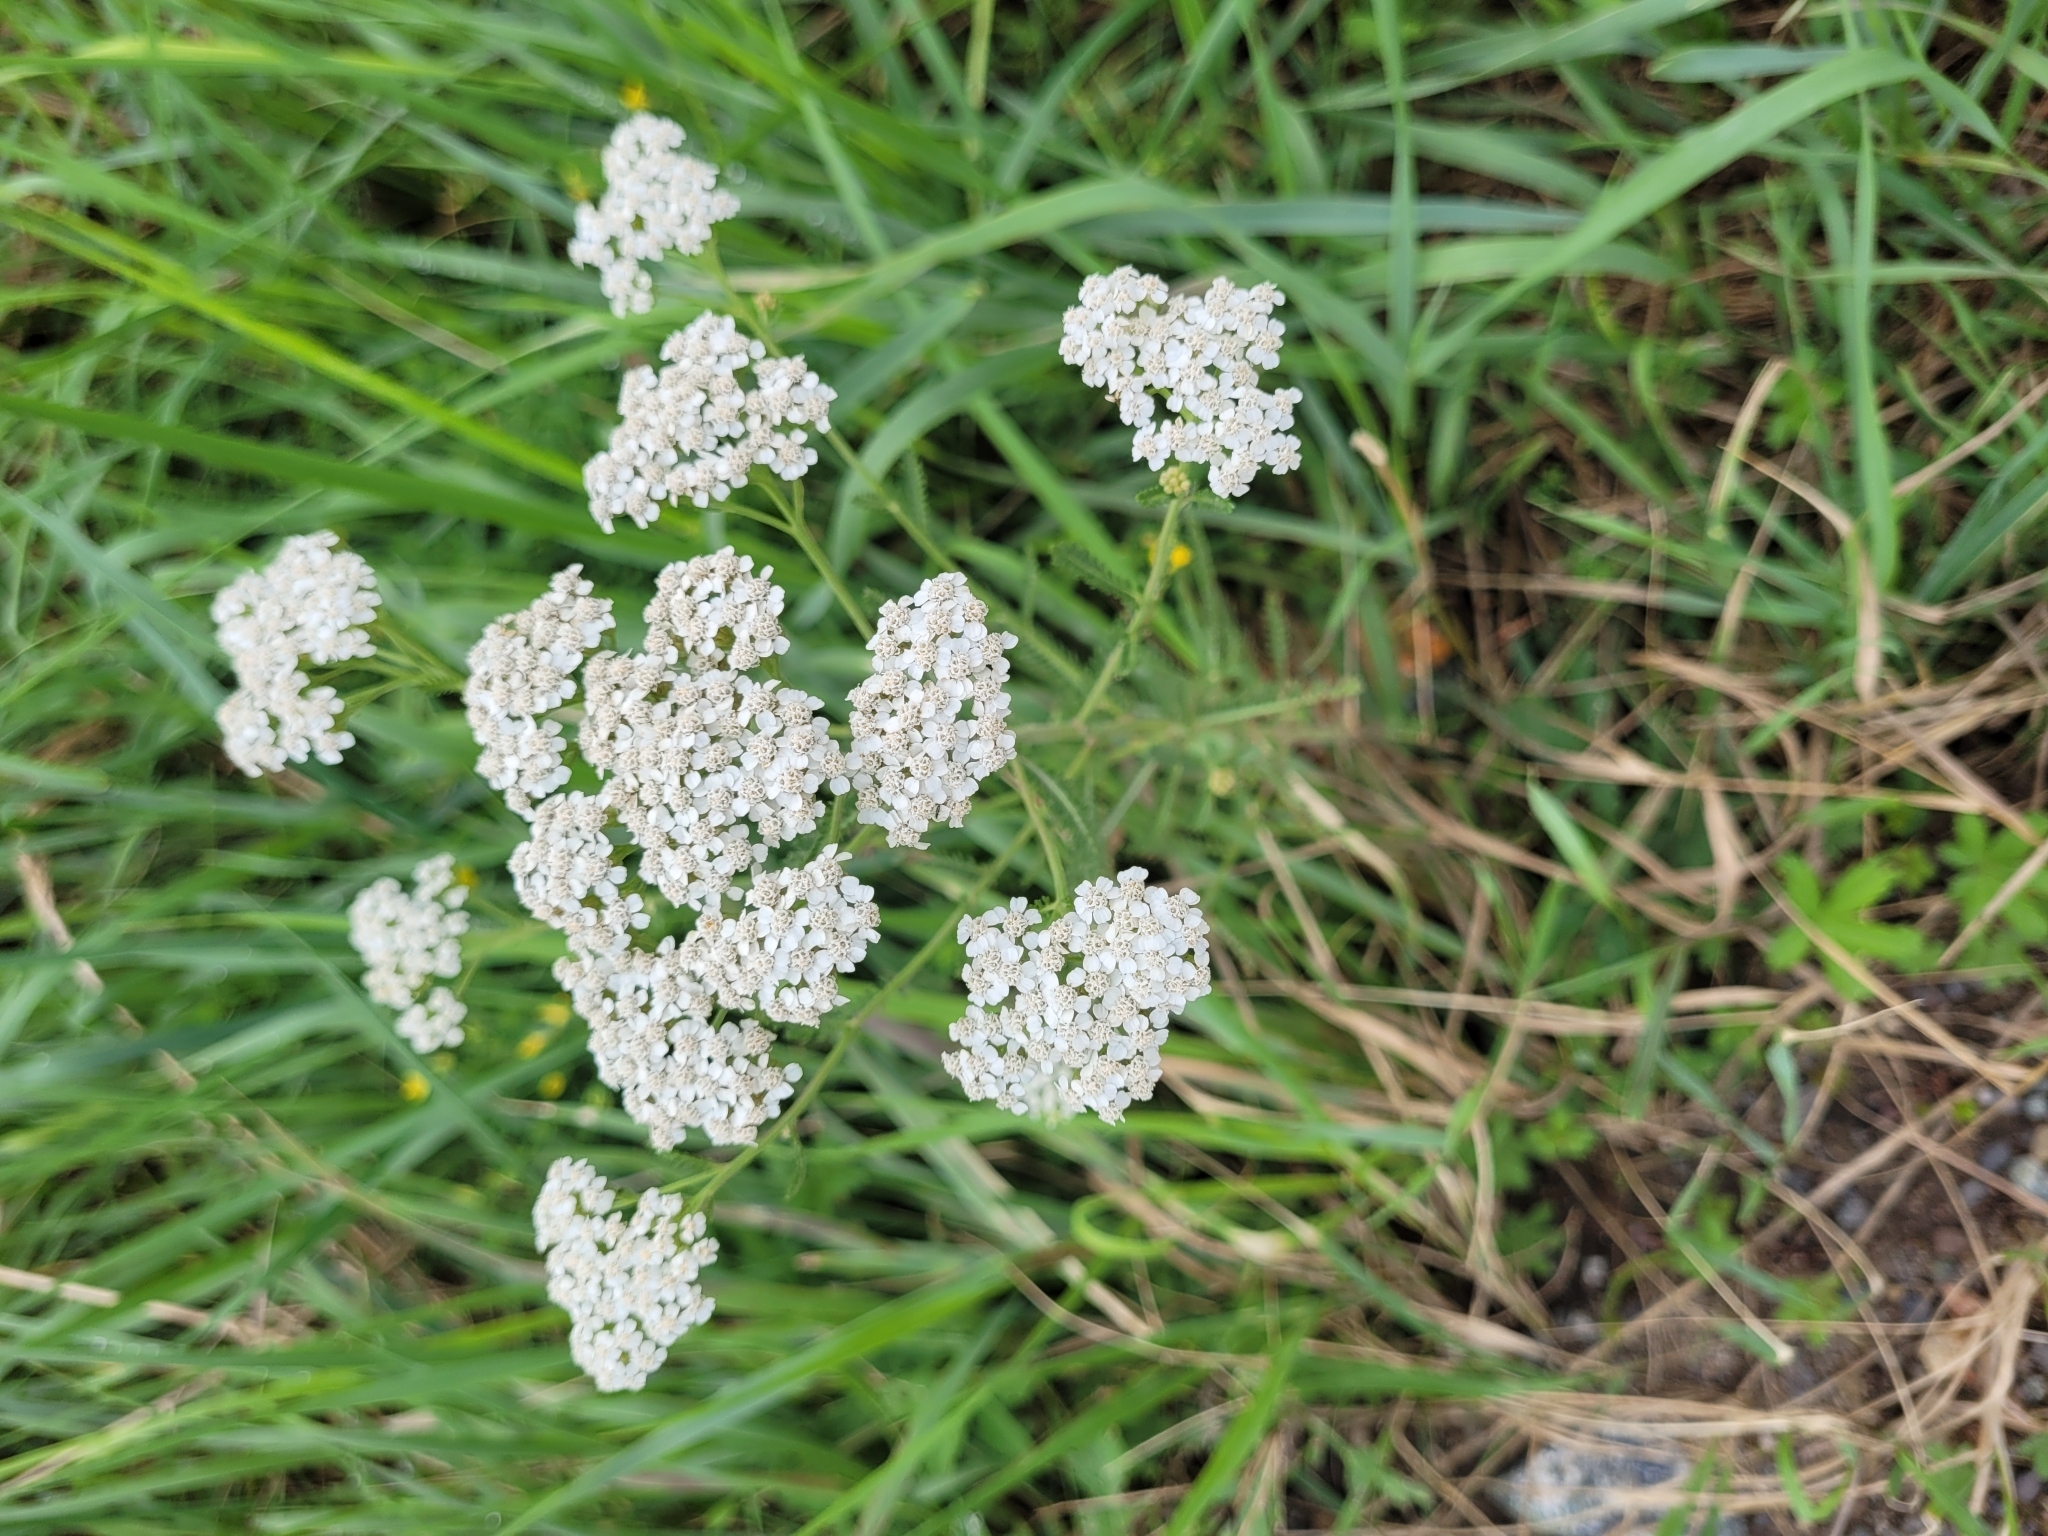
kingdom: Plantae
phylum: Tracheophyta
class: Magnoliopsida
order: Asterales
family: Asteraceae
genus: Achillea
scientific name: Achillea millefolium
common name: Yarrow
